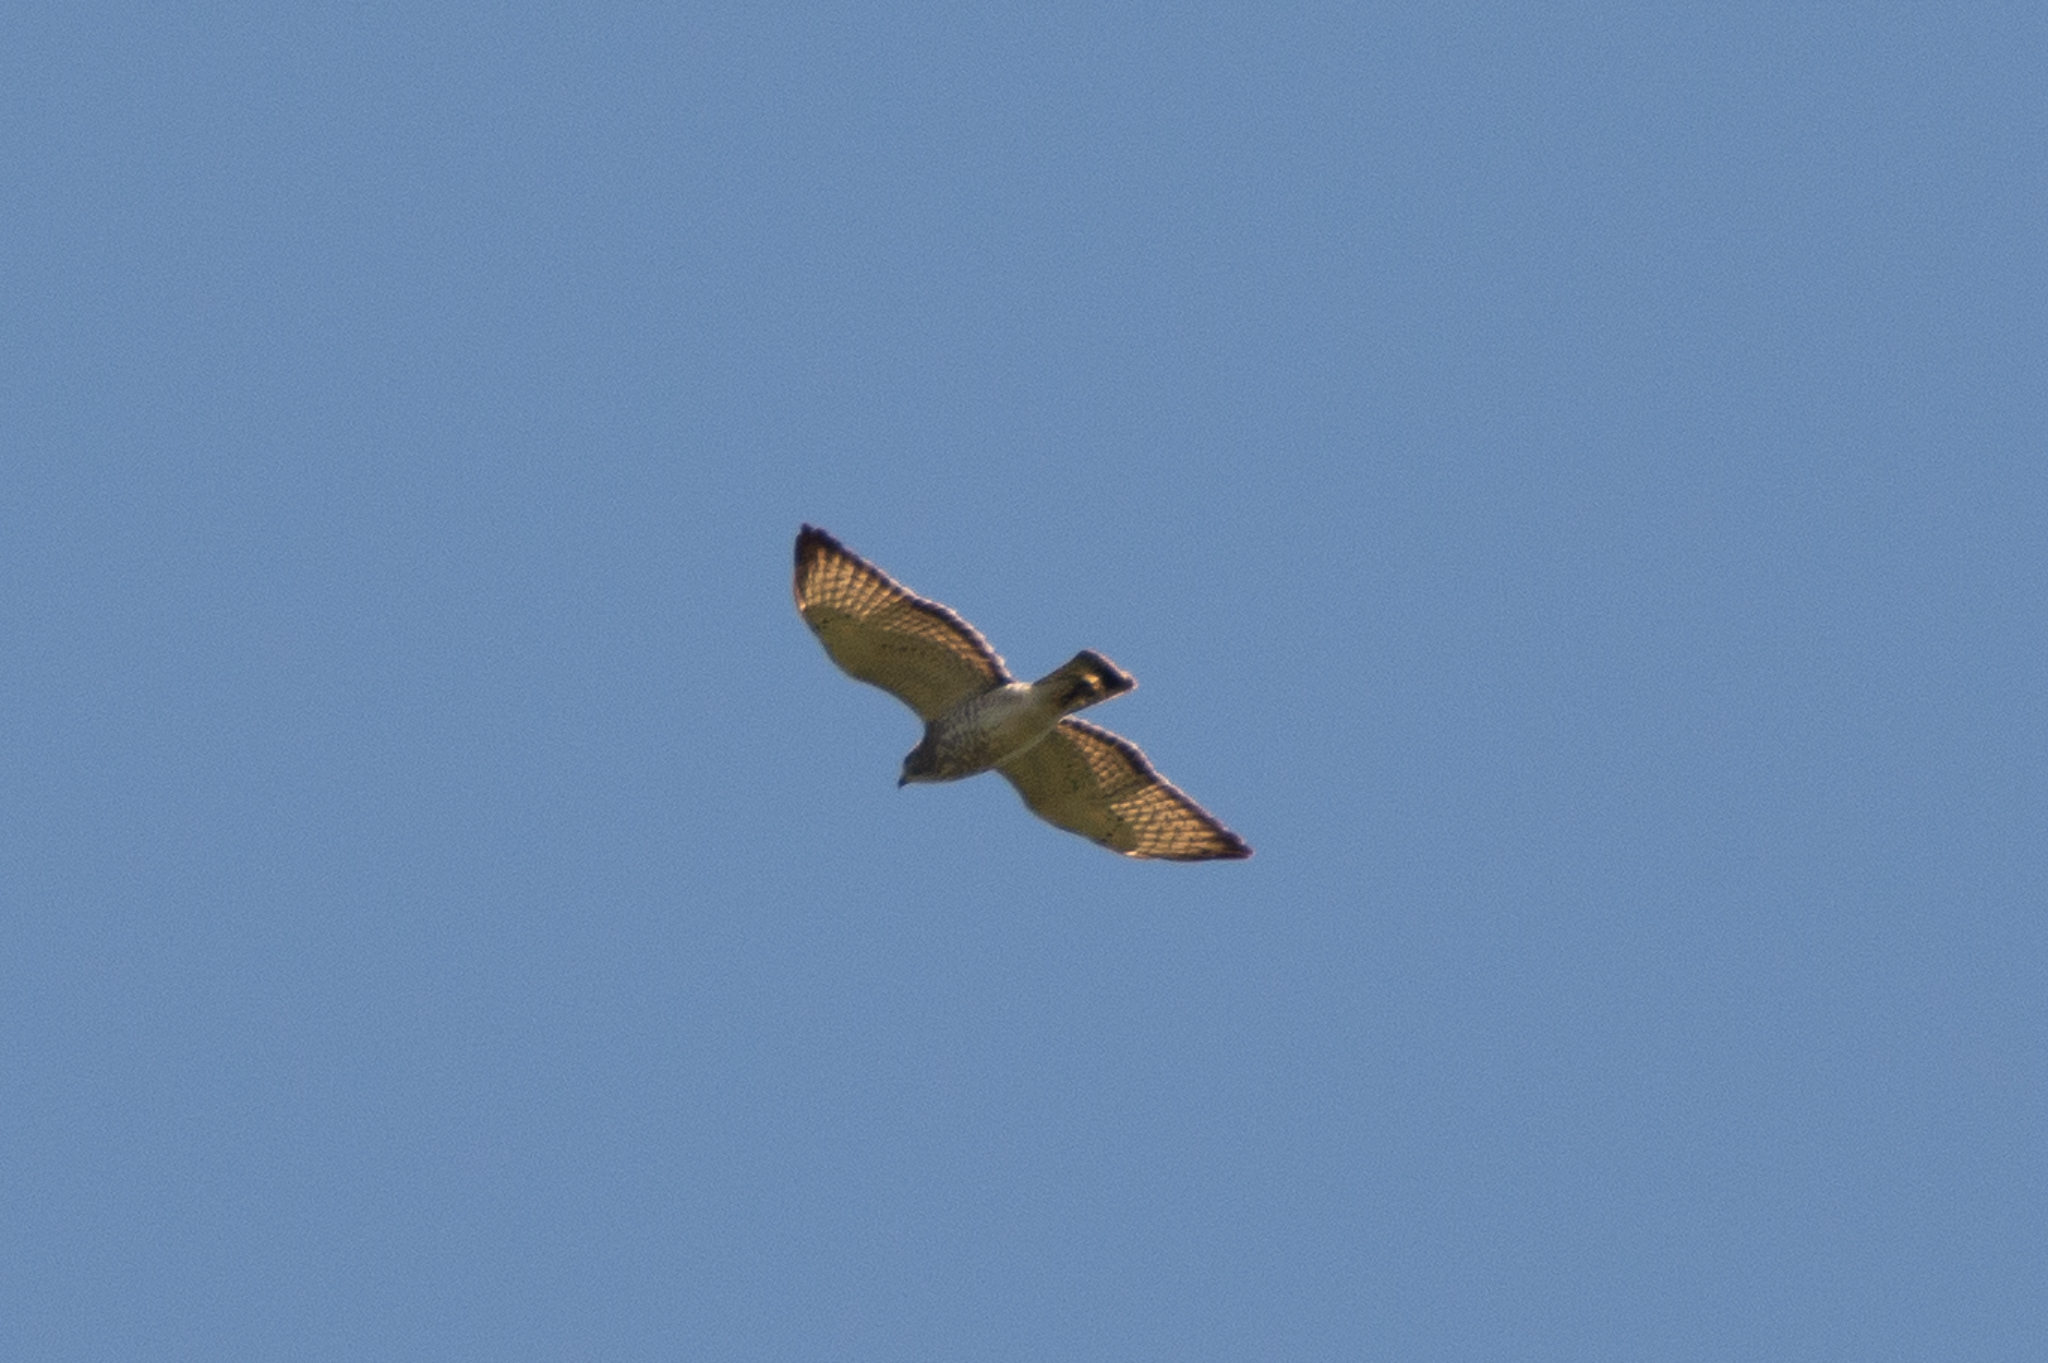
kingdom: Animalia
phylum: Chordata
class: Aves
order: Accipitriformes
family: Accipitridae
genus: Buteo
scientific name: Buteo platypterus
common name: Broad-winged hawk
